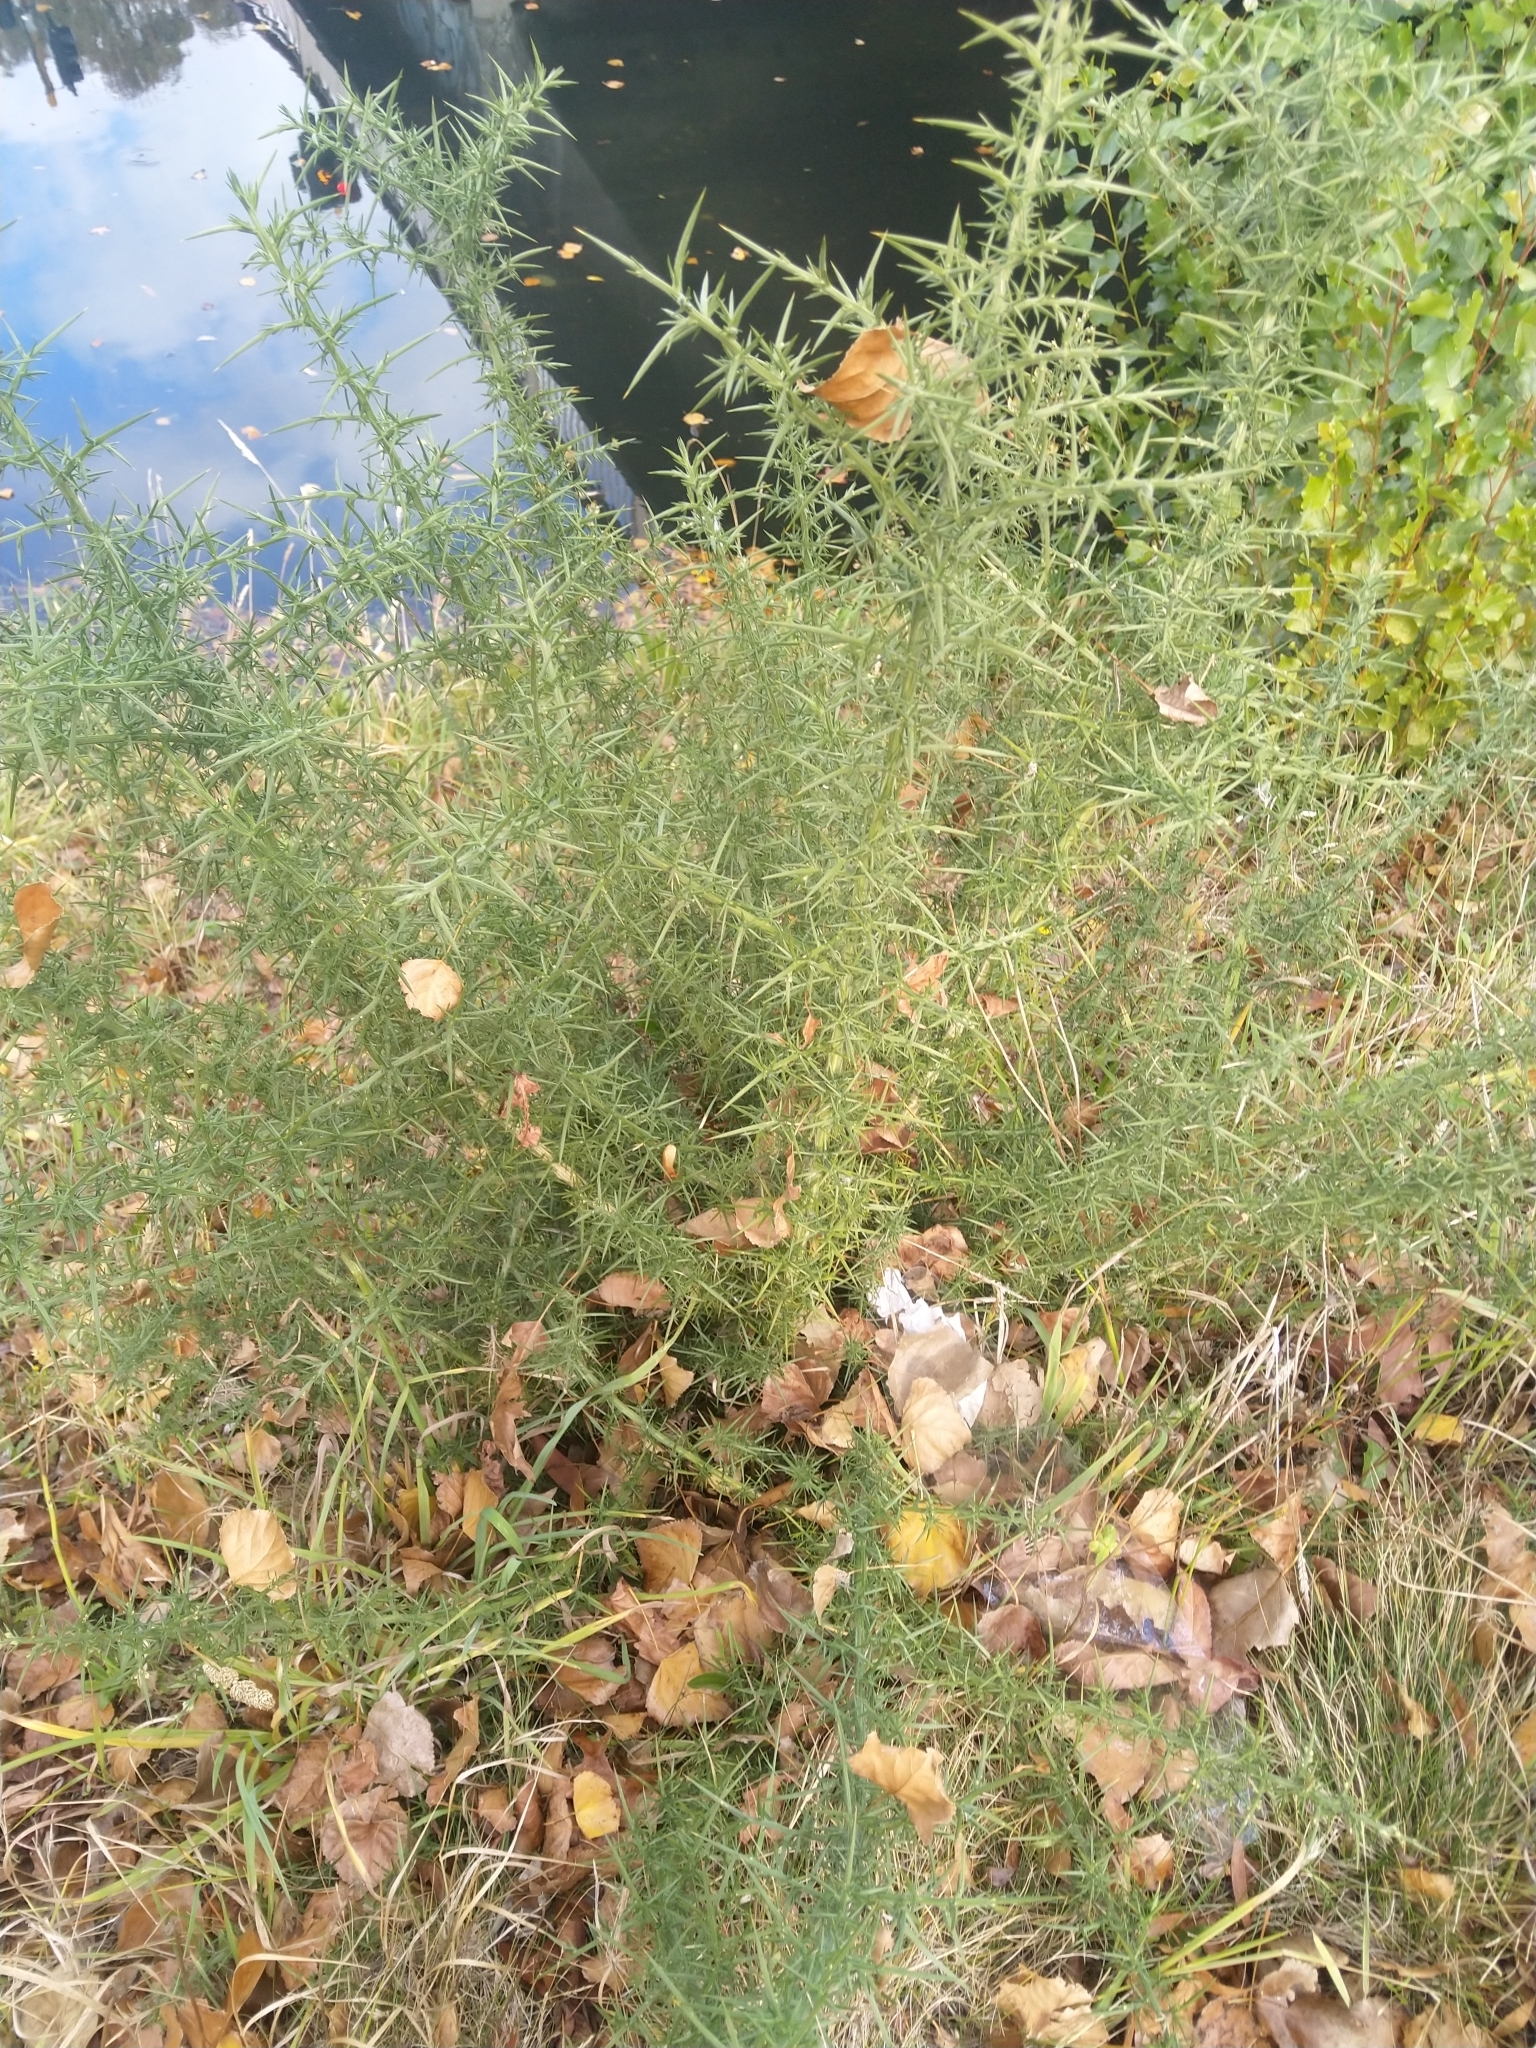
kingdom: Plantae
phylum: Tracheophyta
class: Magnoliopsida
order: Fabales
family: Fabaceae
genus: Ulex
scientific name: Ulex europaeus
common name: Common gorse
